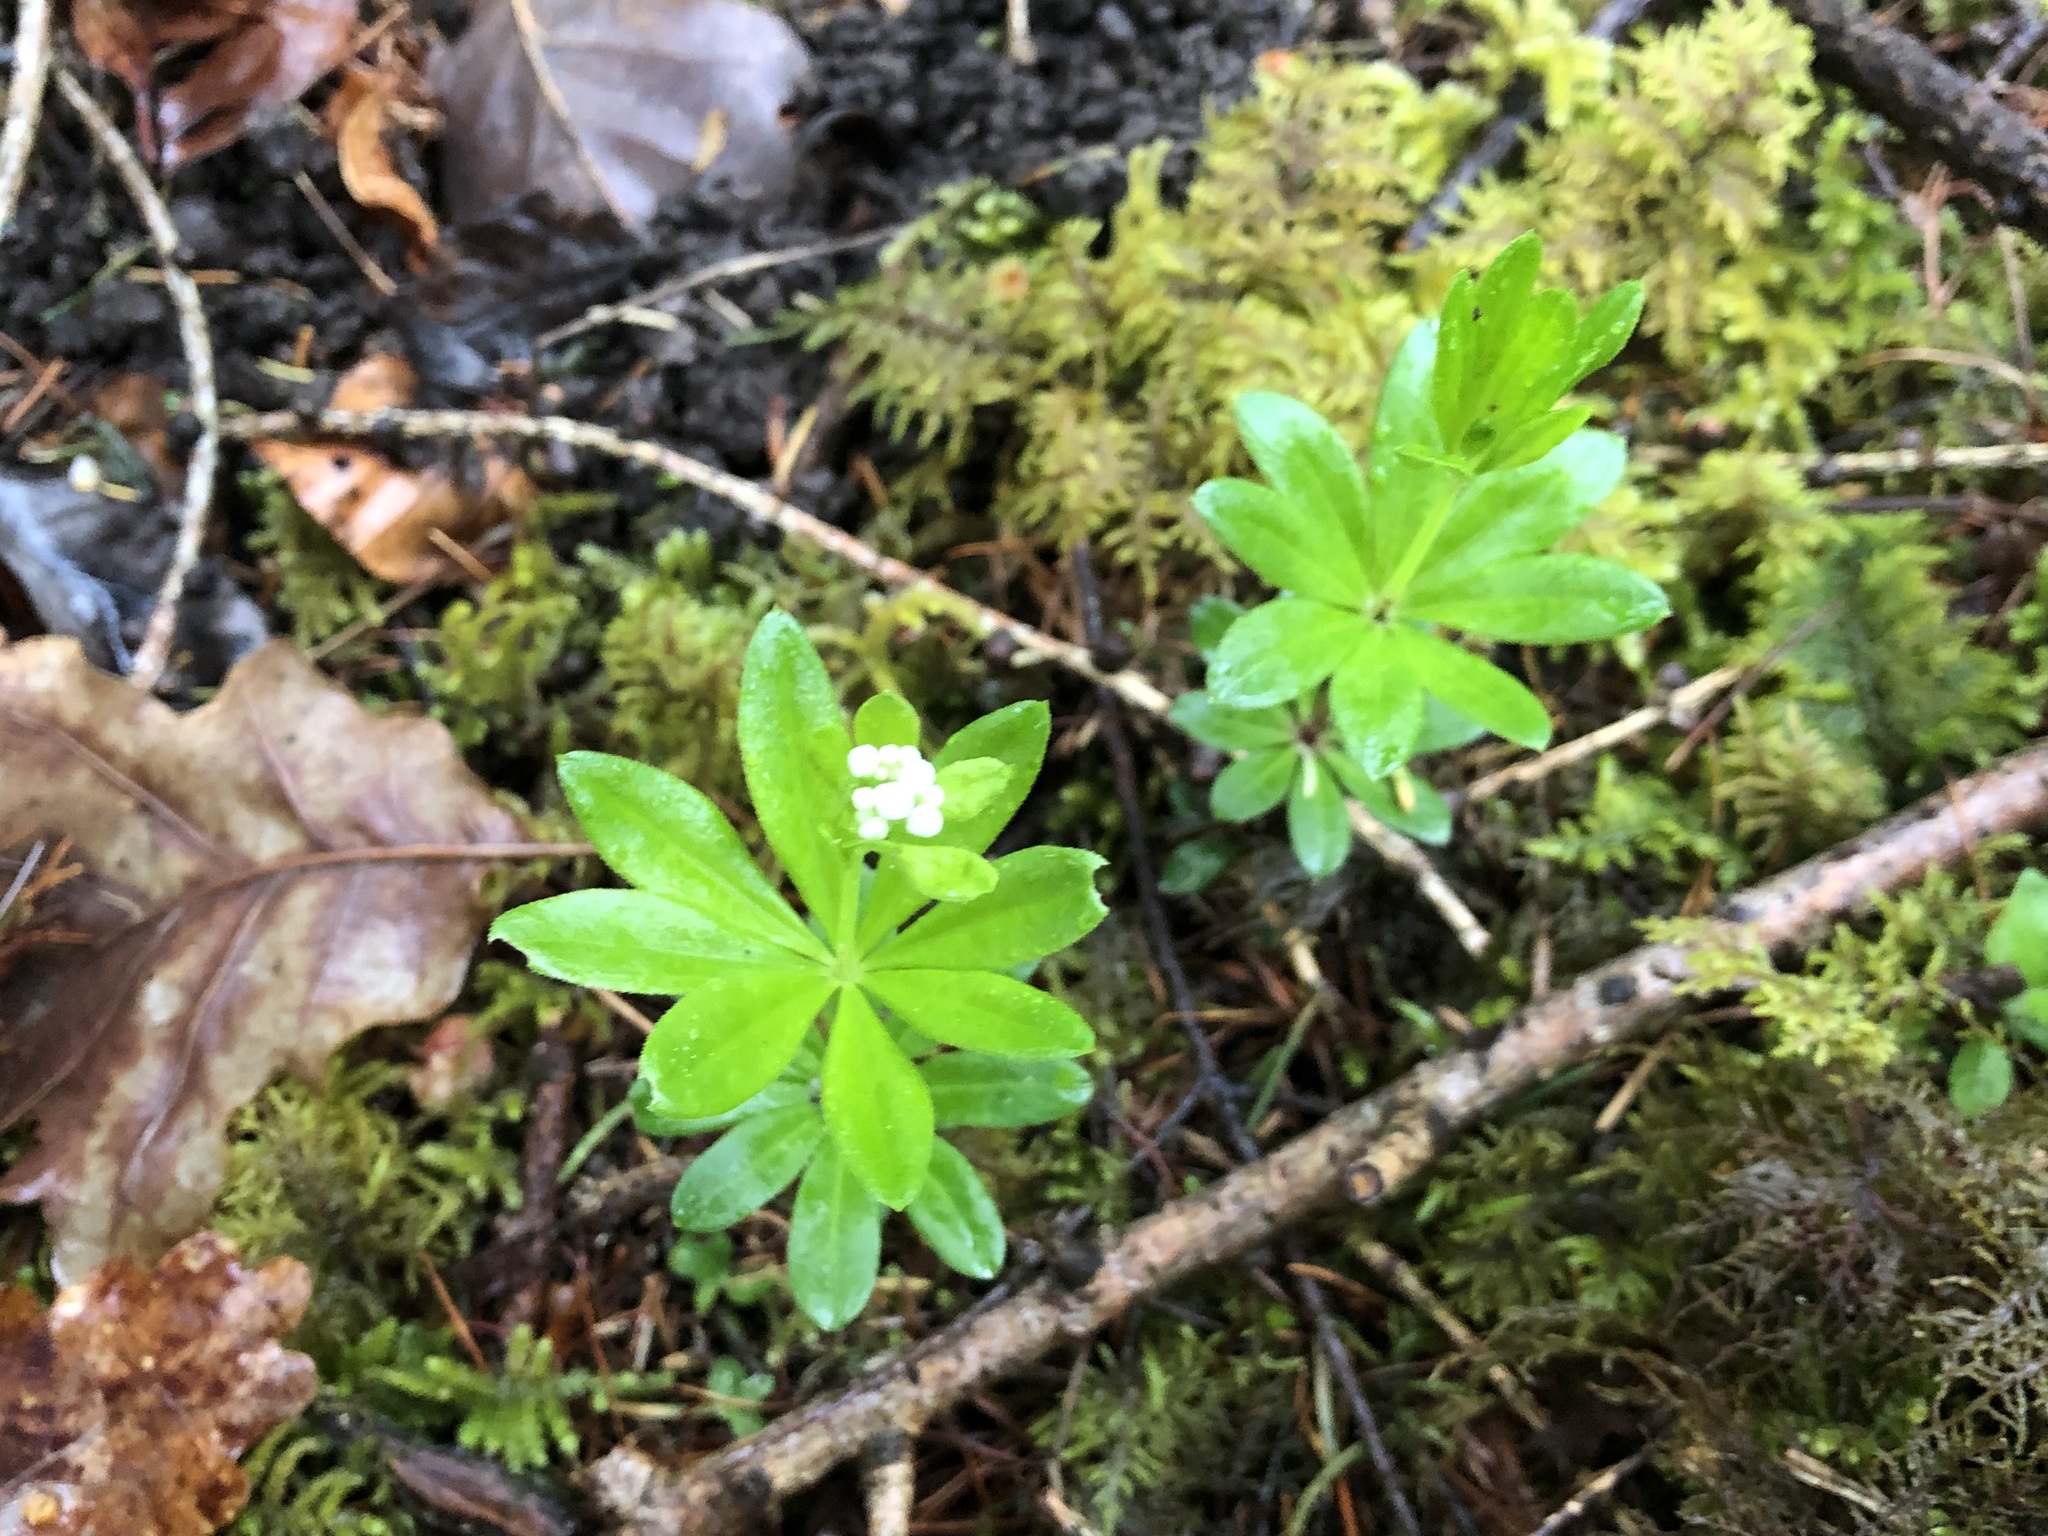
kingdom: Plantae
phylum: Tracheophyta
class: Magnoliopsida
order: Gentianales
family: Rubiaceae
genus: Galium
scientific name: Galium odoratum
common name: Sweet woodruff
